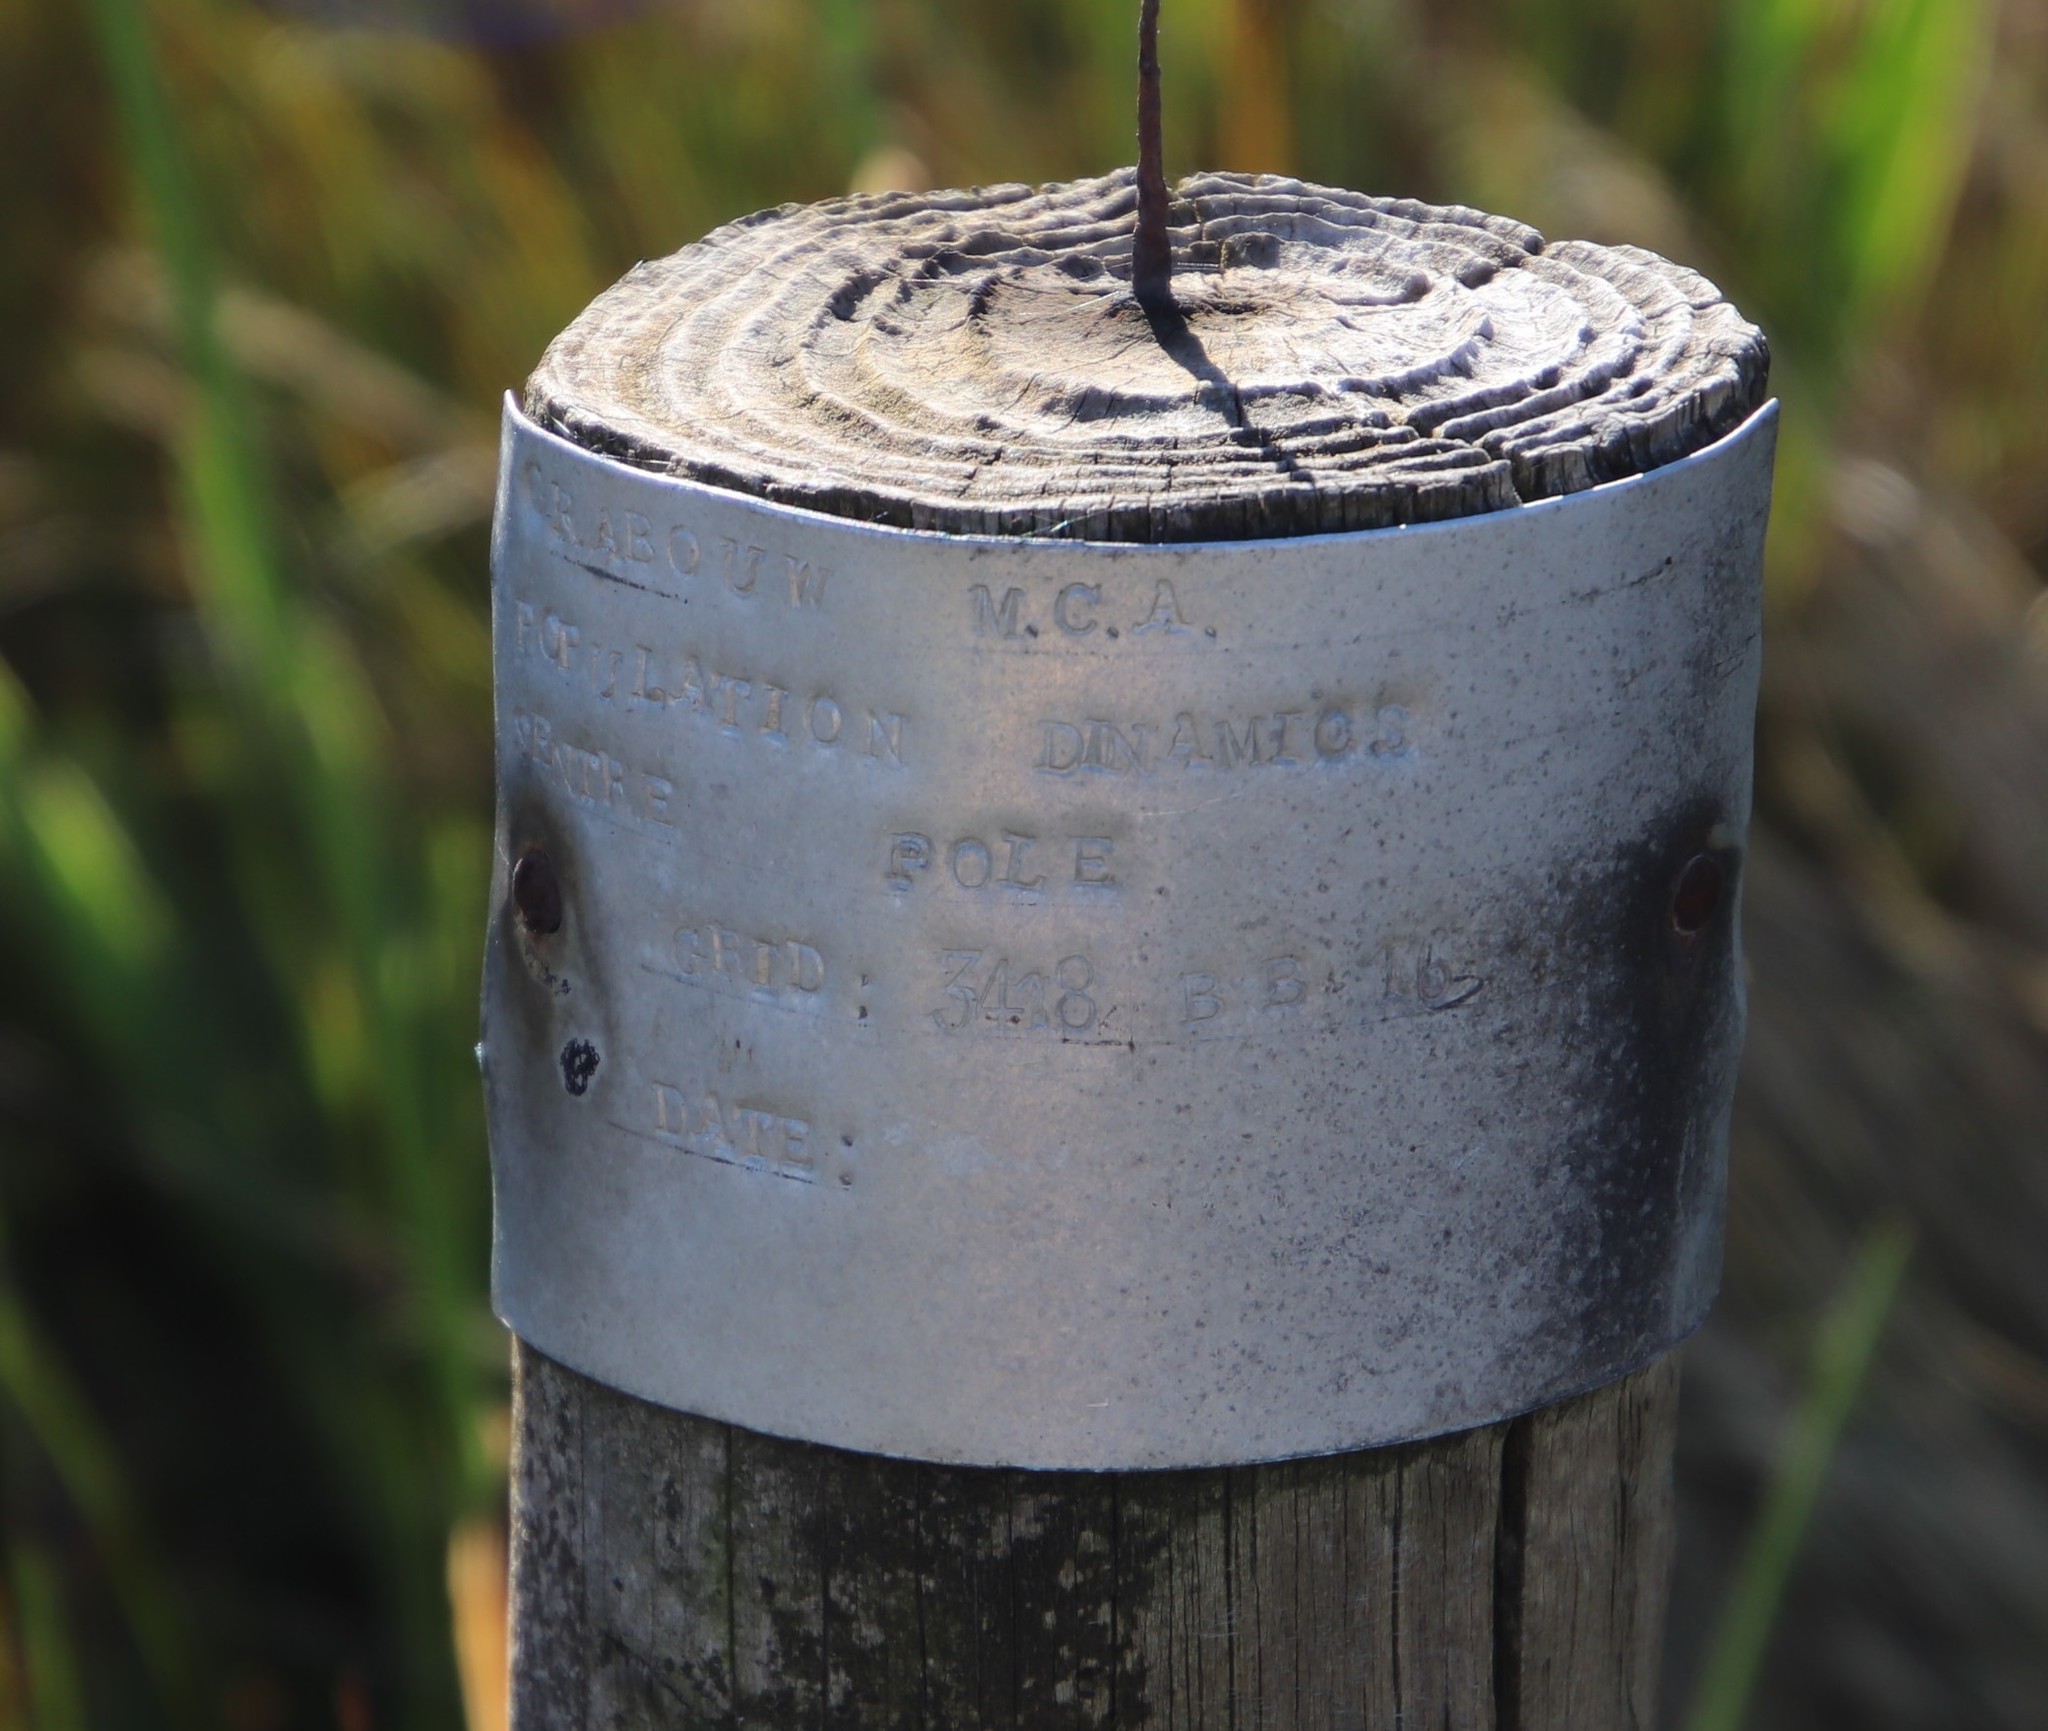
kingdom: Plantae
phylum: Tracheophyta
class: Magnoliopsida
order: Proteales
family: Proteaceae
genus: Protea
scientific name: Protea cynaroides
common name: King protea
